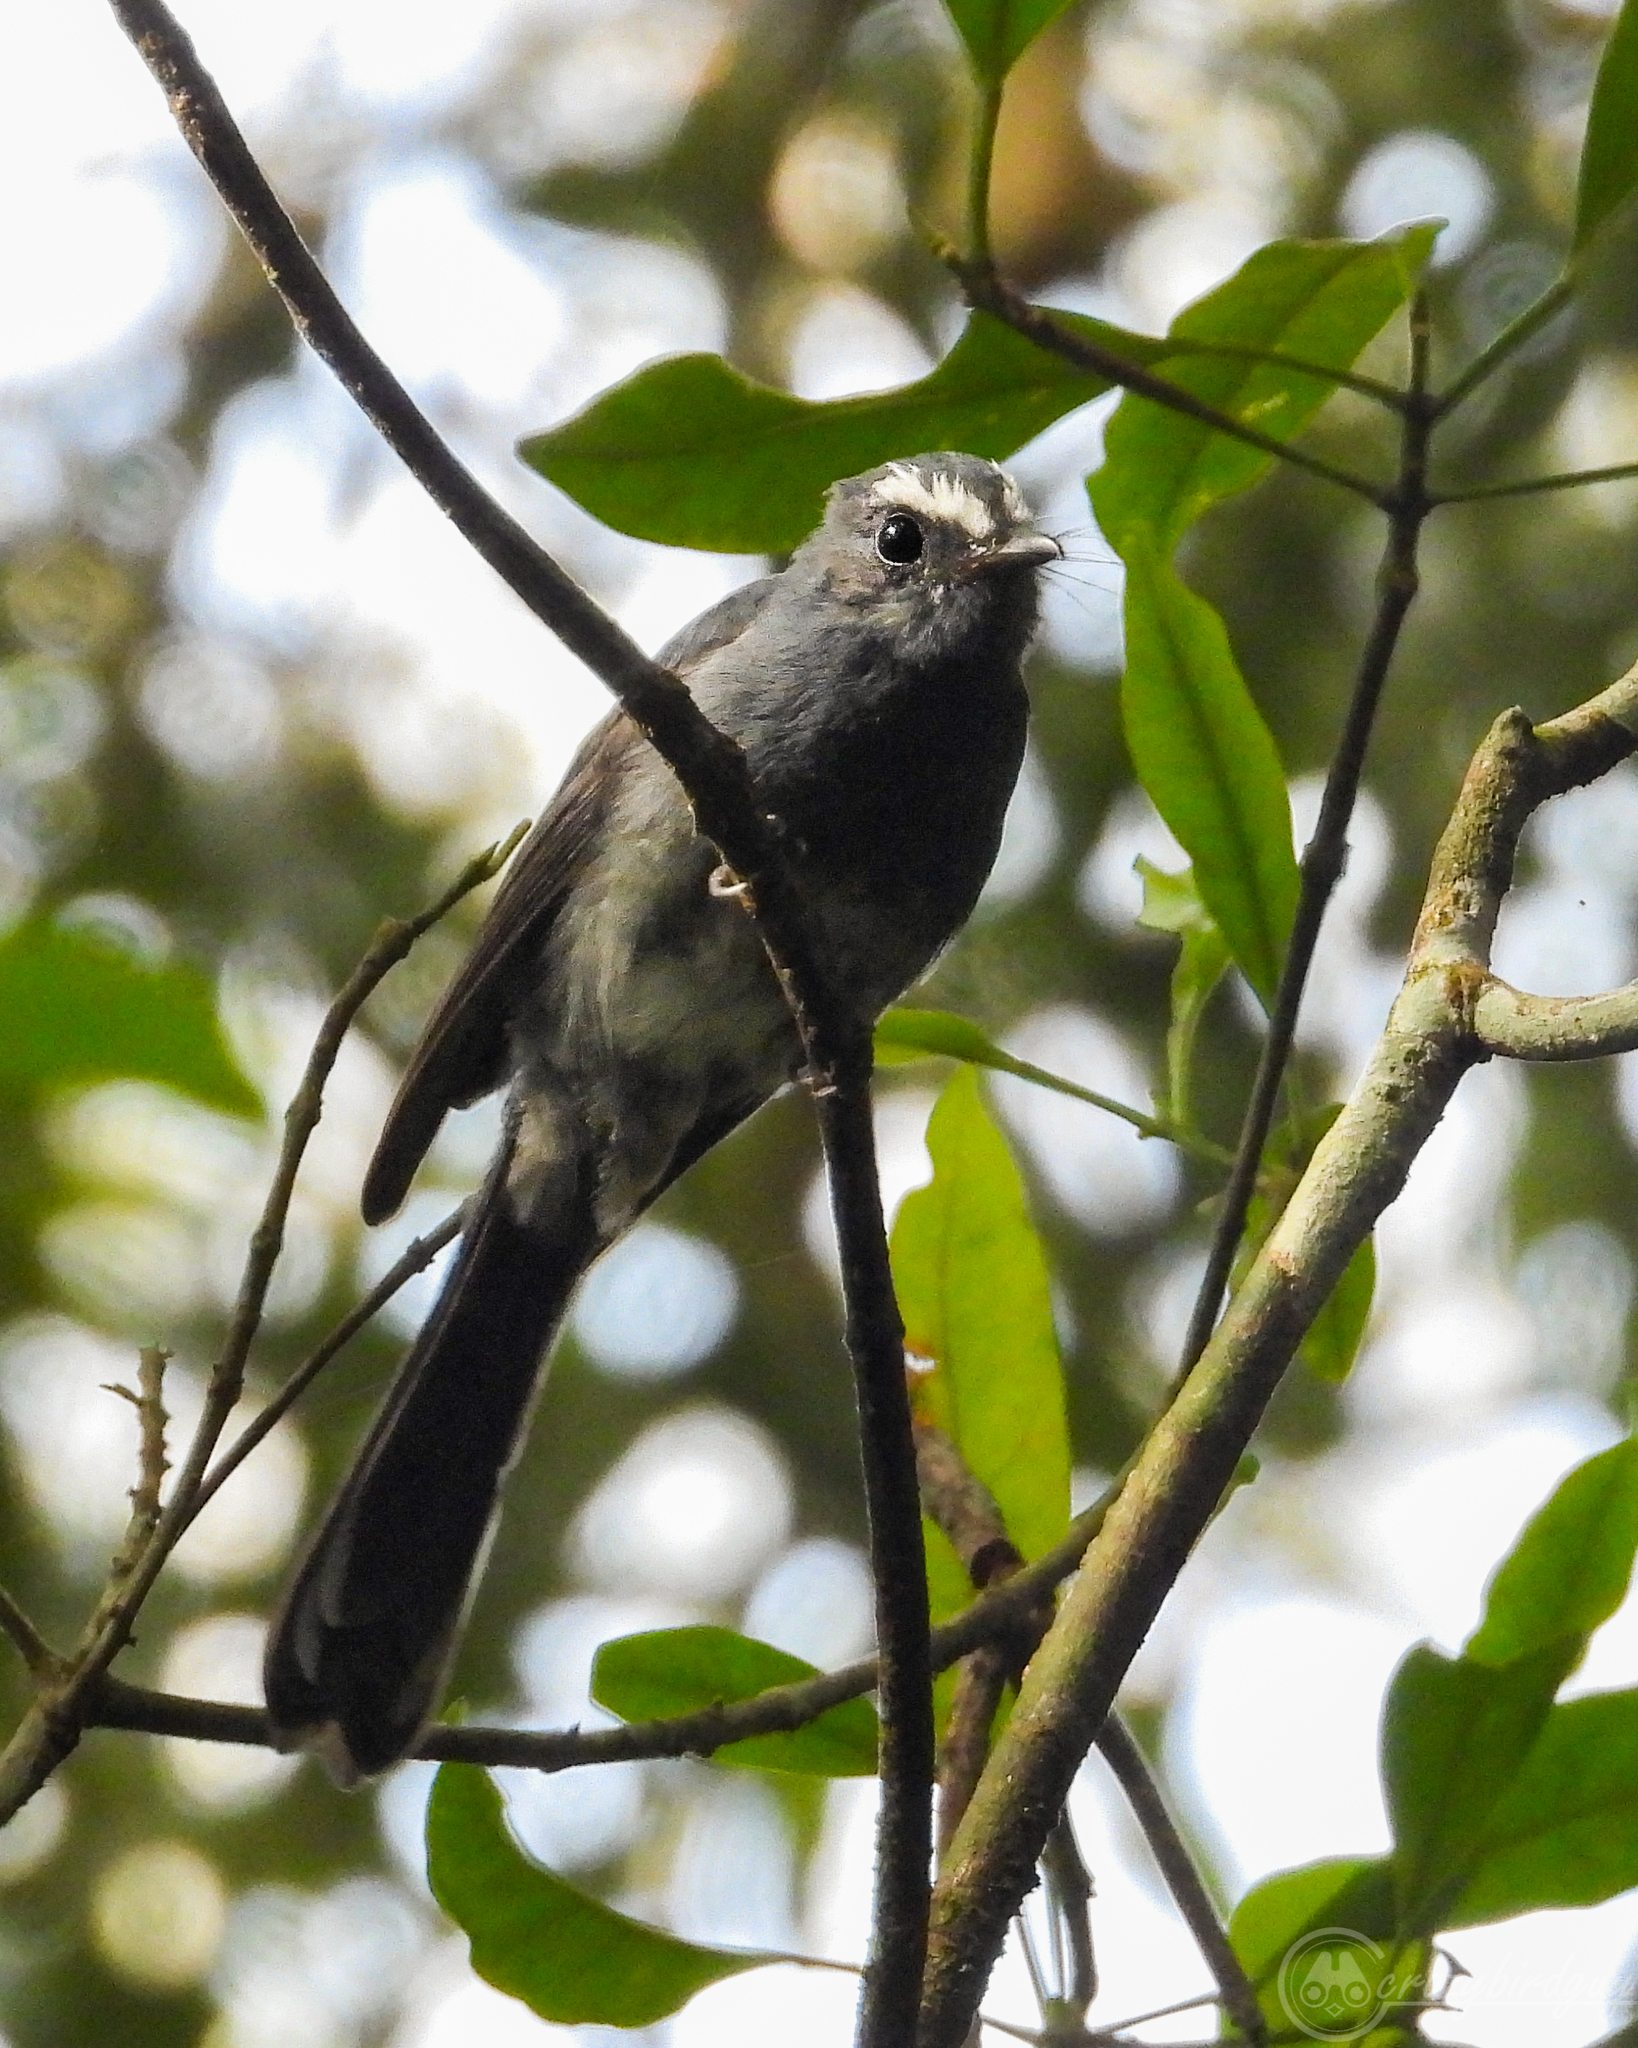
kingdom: Animalia
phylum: Chordata
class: Aves
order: Passeriformes
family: Rhipiduridae
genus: Rhipidura
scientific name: Rhipidura euryura
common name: White-bellied fantail
